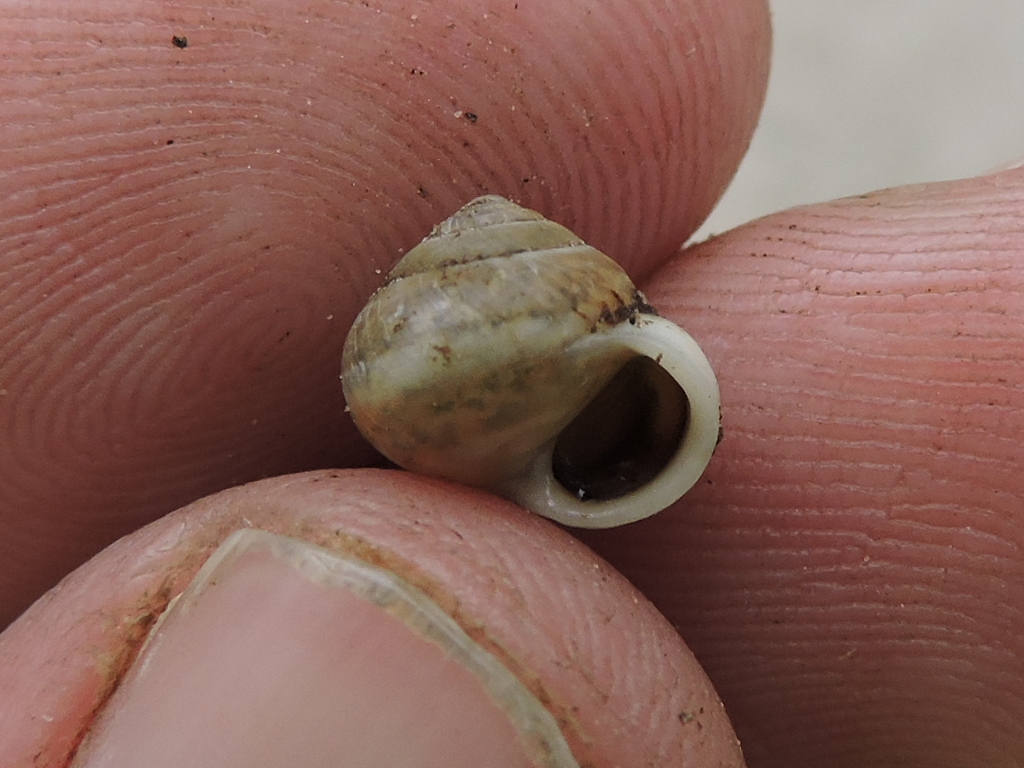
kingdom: Animalia
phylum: Mollusca
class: Gastropoda
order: Cycloneritida
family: Helicinidae
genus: Helicina
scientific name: Helicina orbiculata
